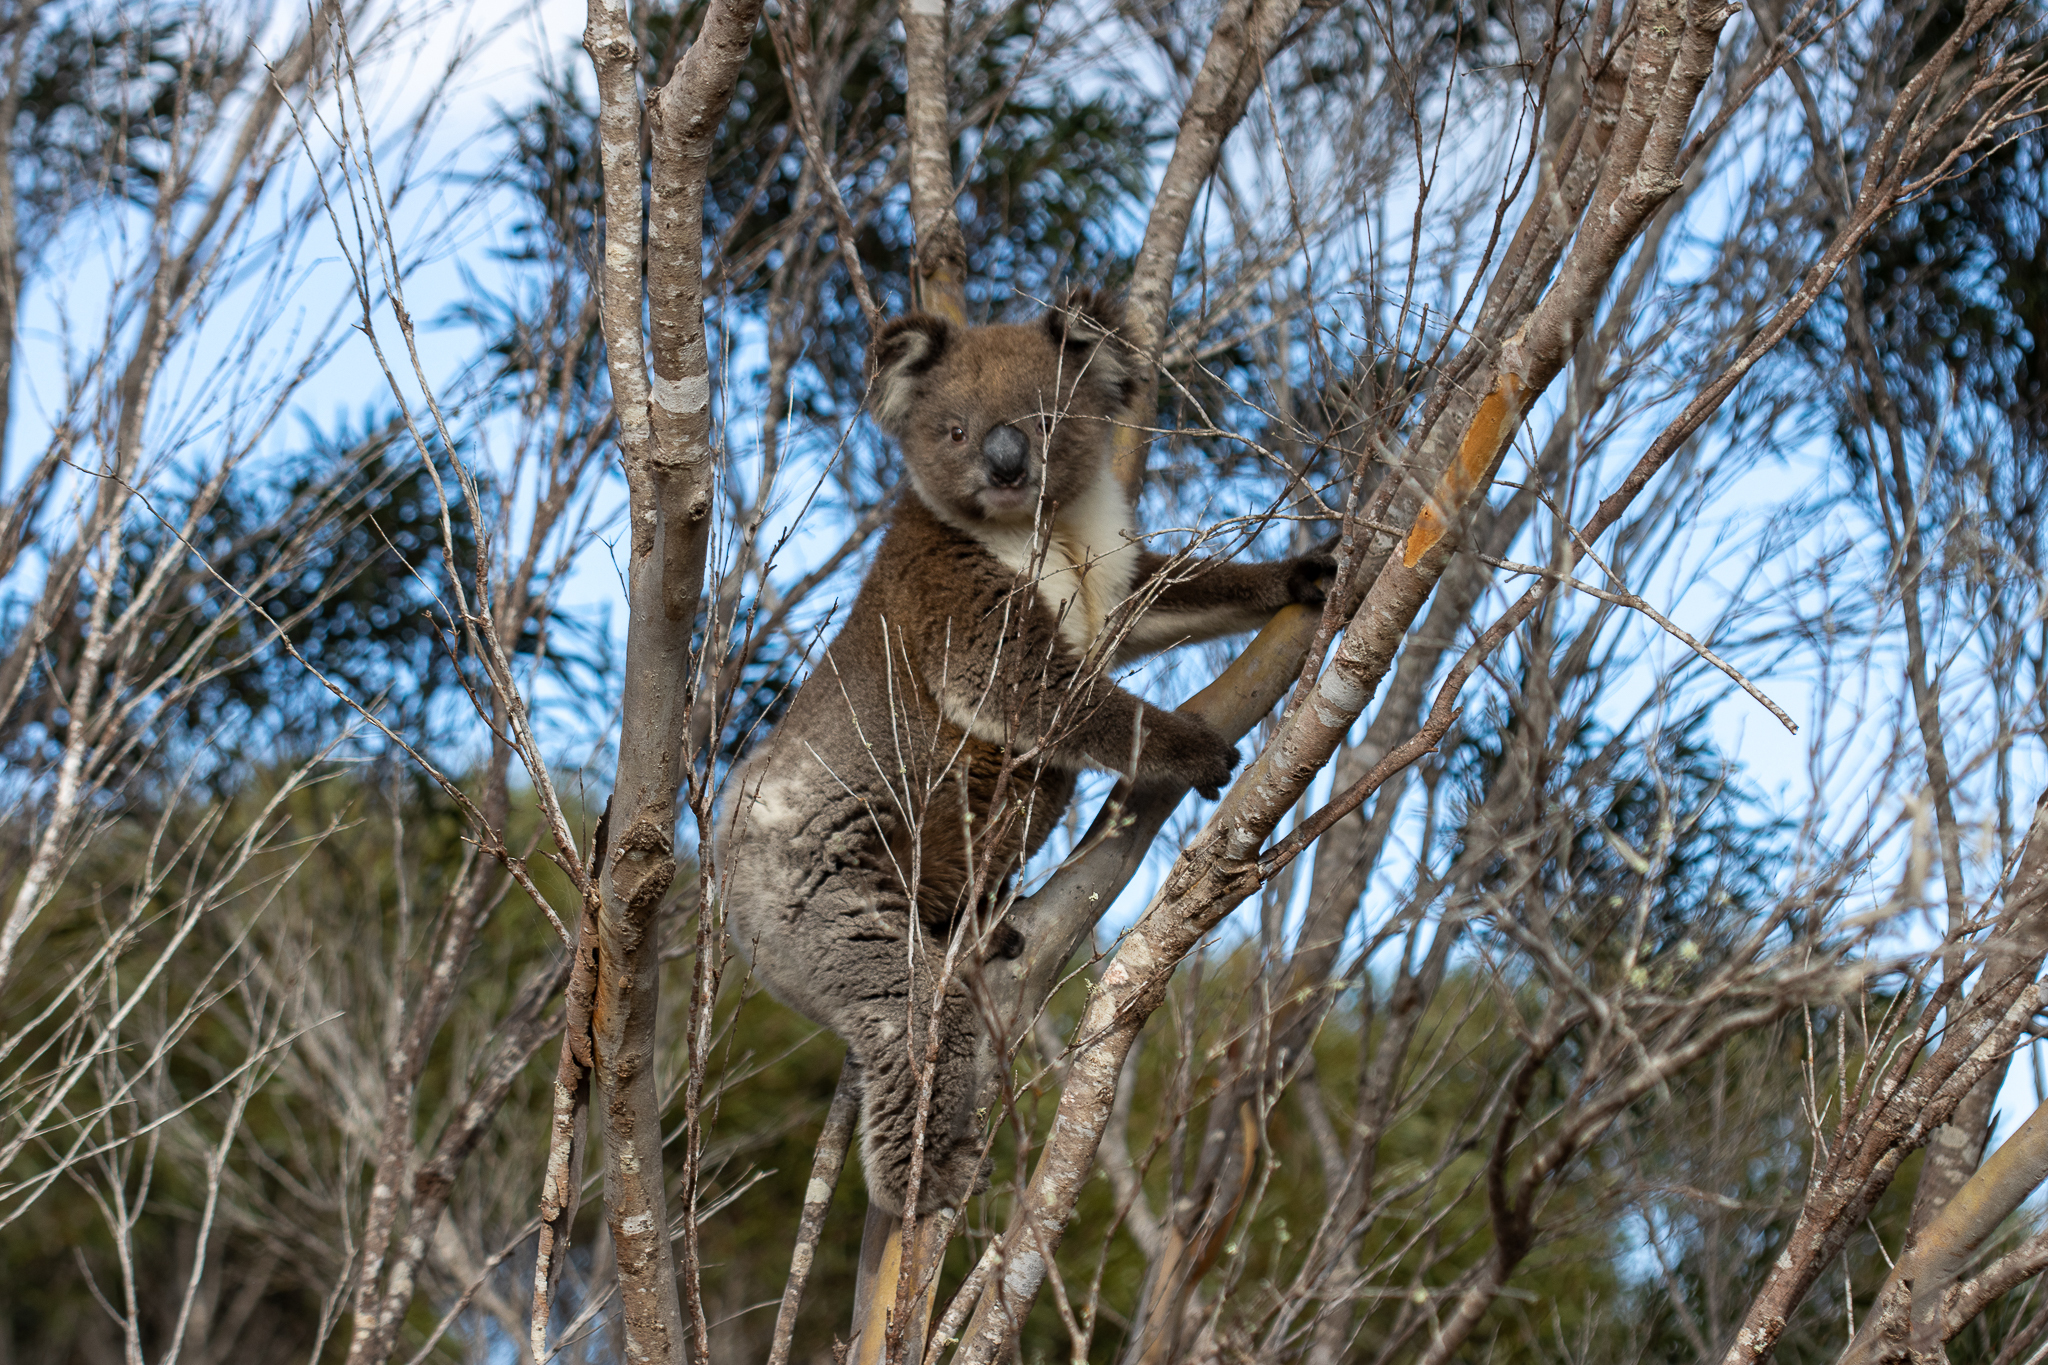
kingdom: Animalia
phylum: Chordata
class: Mammalia
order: Diprotodontia
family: Phascolarctidae
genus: Phascolarctos
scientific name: Phascolarctos cinereus
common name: Koala
